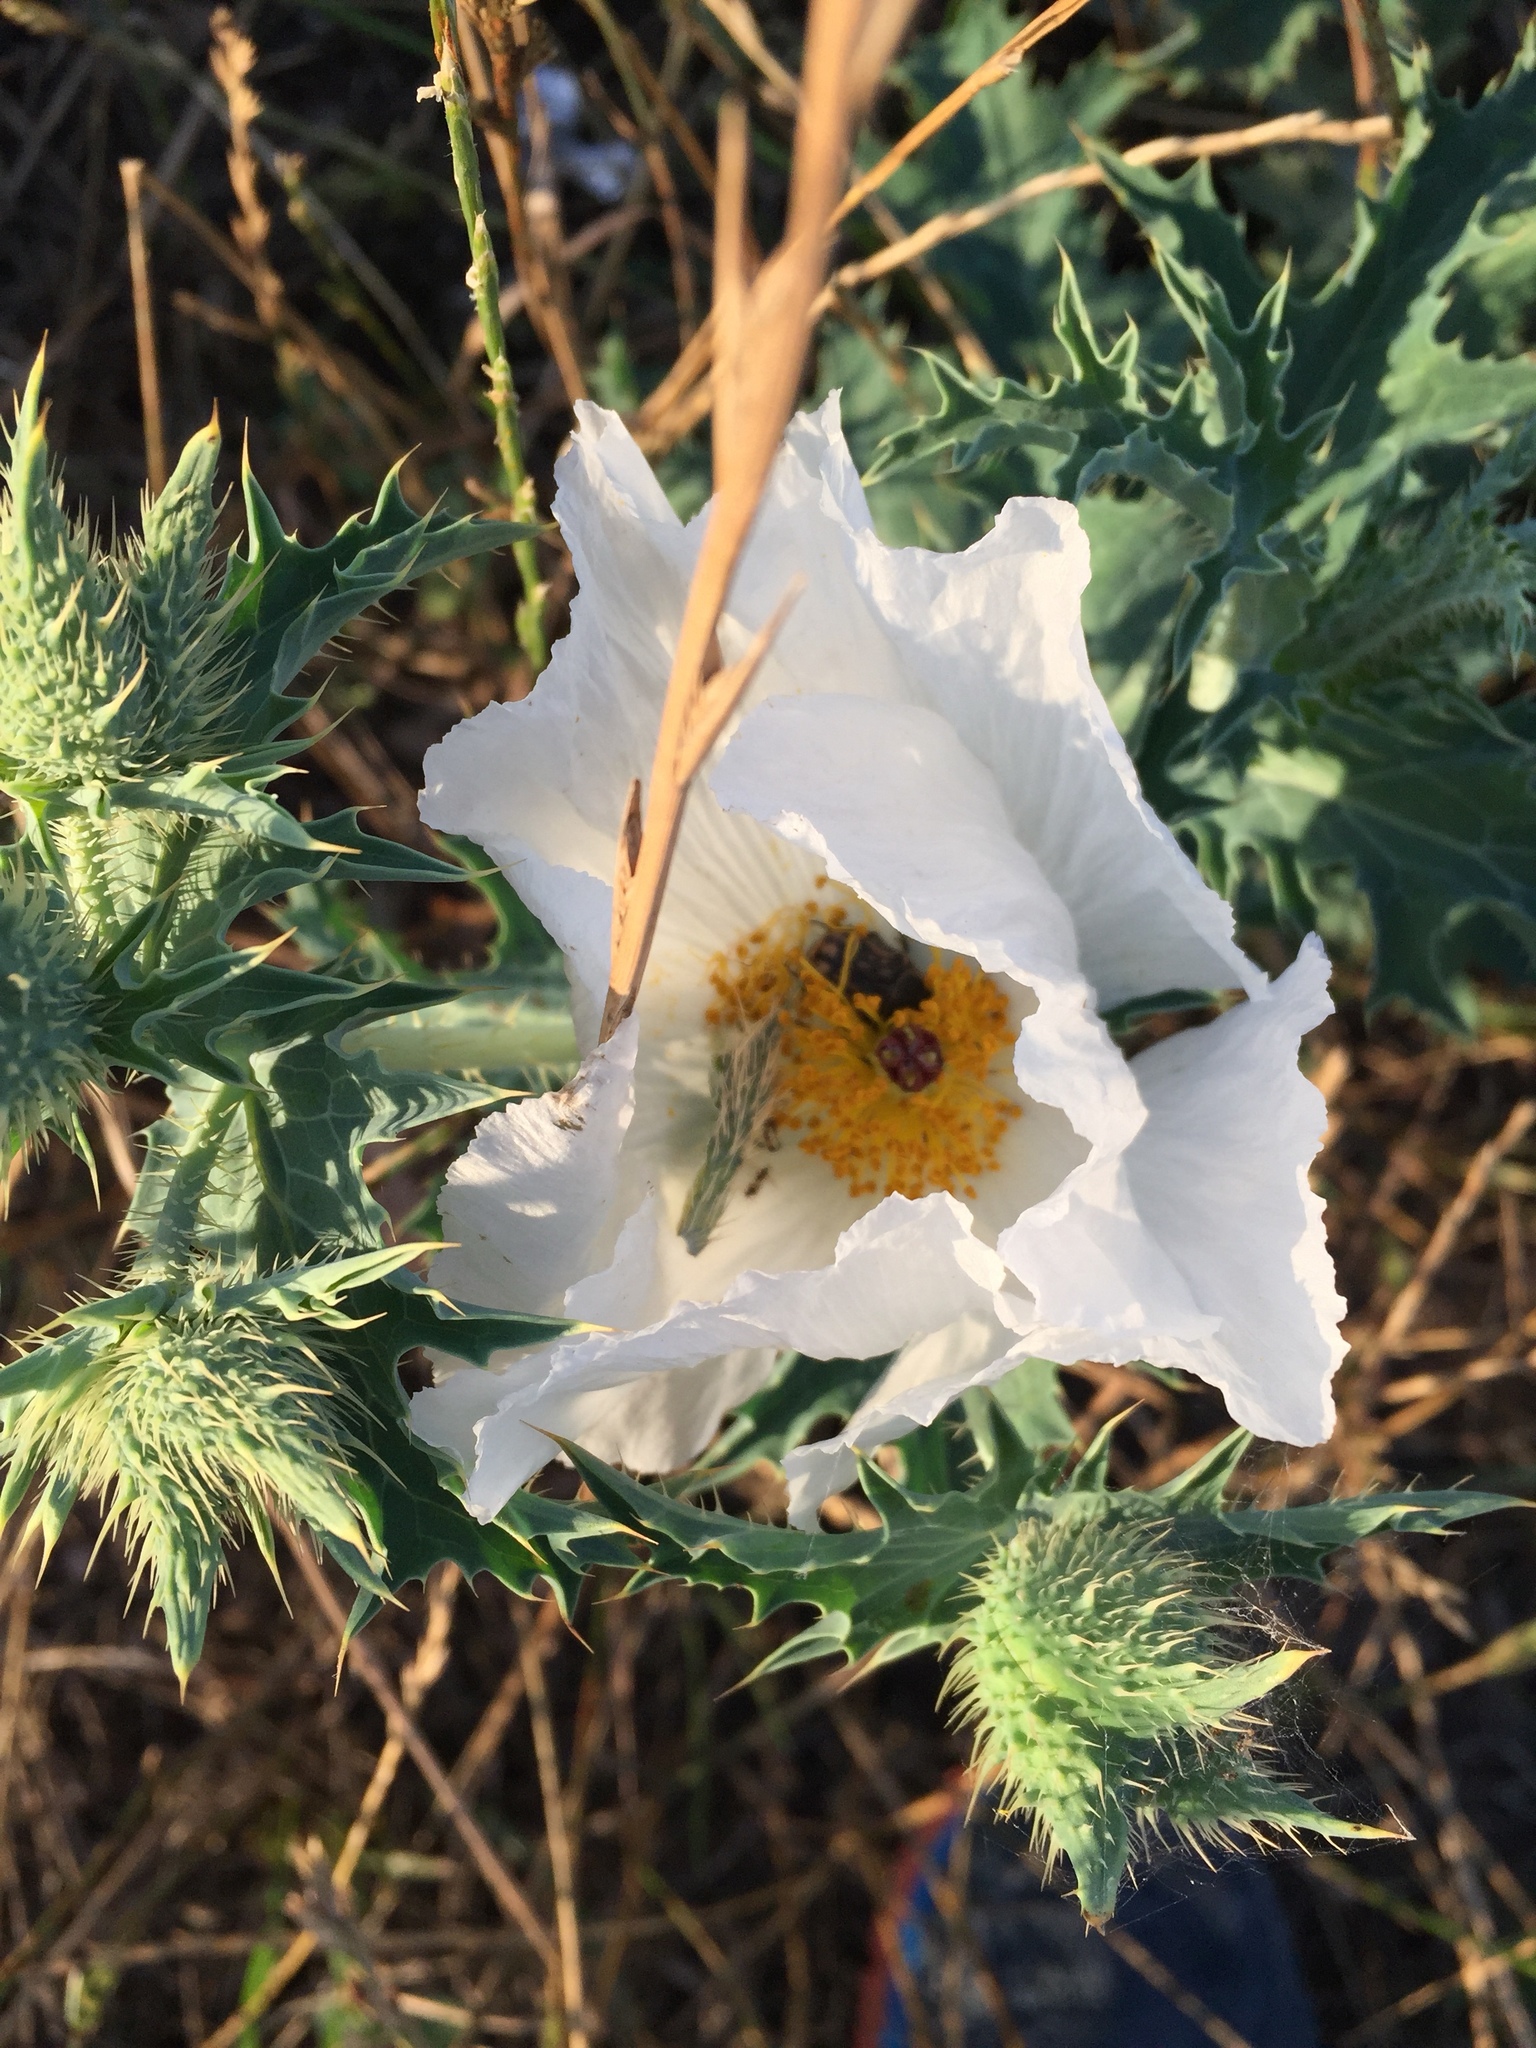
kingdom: Plantae
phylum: Tracheophyta
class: Magnoliopsida
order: Ranunculales
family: Papaveraceae
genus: Argemone
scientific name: Argemone albiflora
